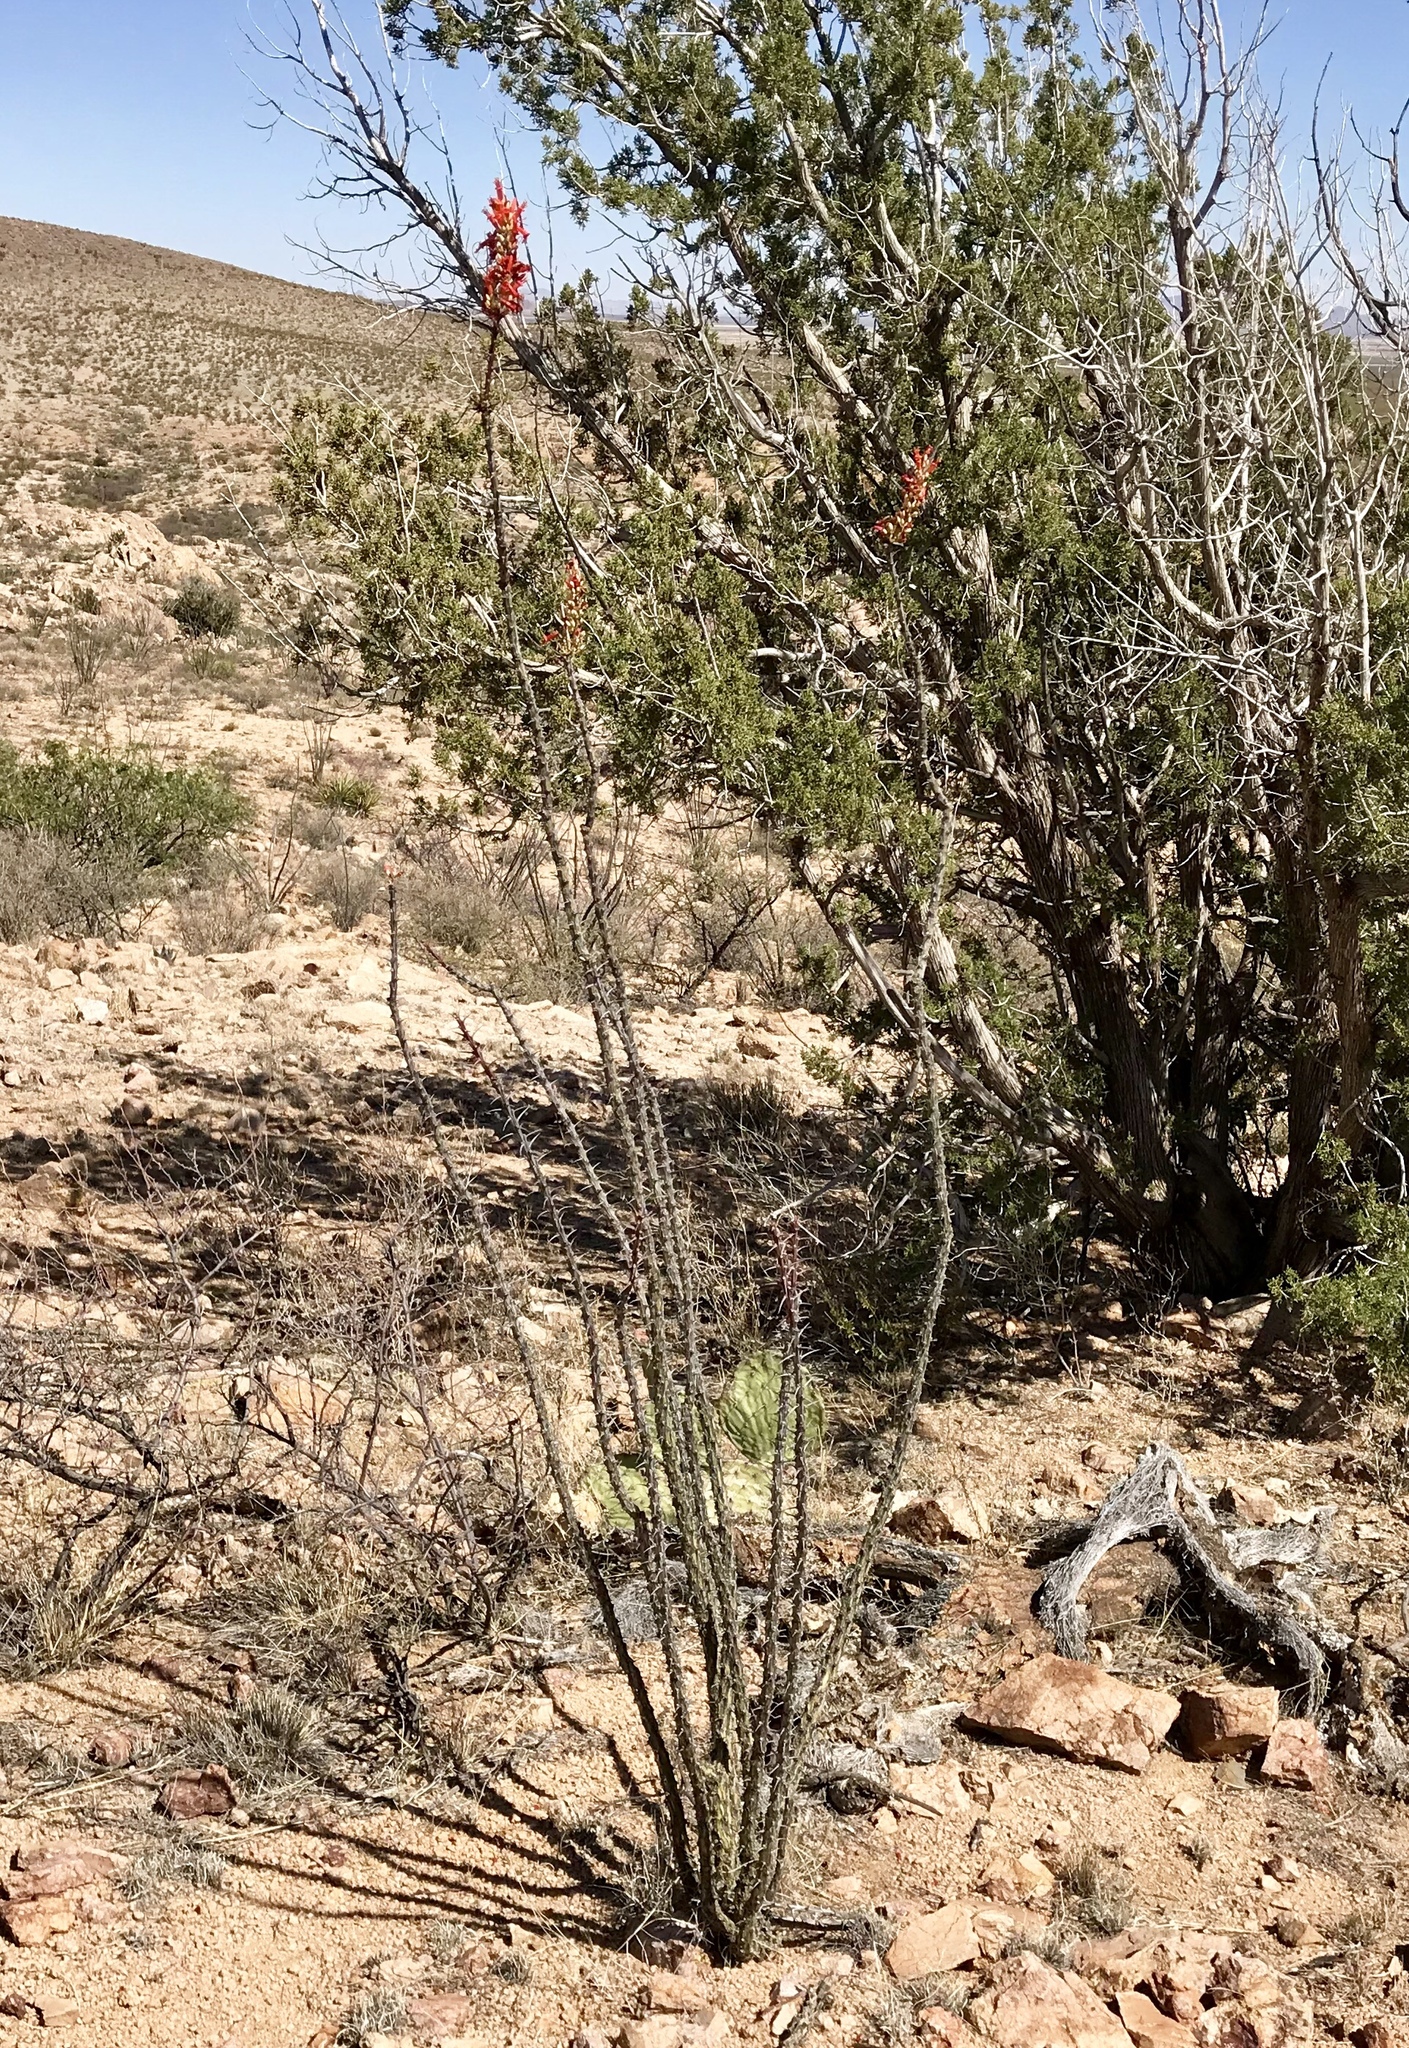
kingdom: Plantae
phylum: Tracheophyta
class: Magnoliopsida
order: Ericales
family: Fouquieriaceae
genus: Fouquieria
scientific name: Fouquieria splendens
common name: Vine-cactus
